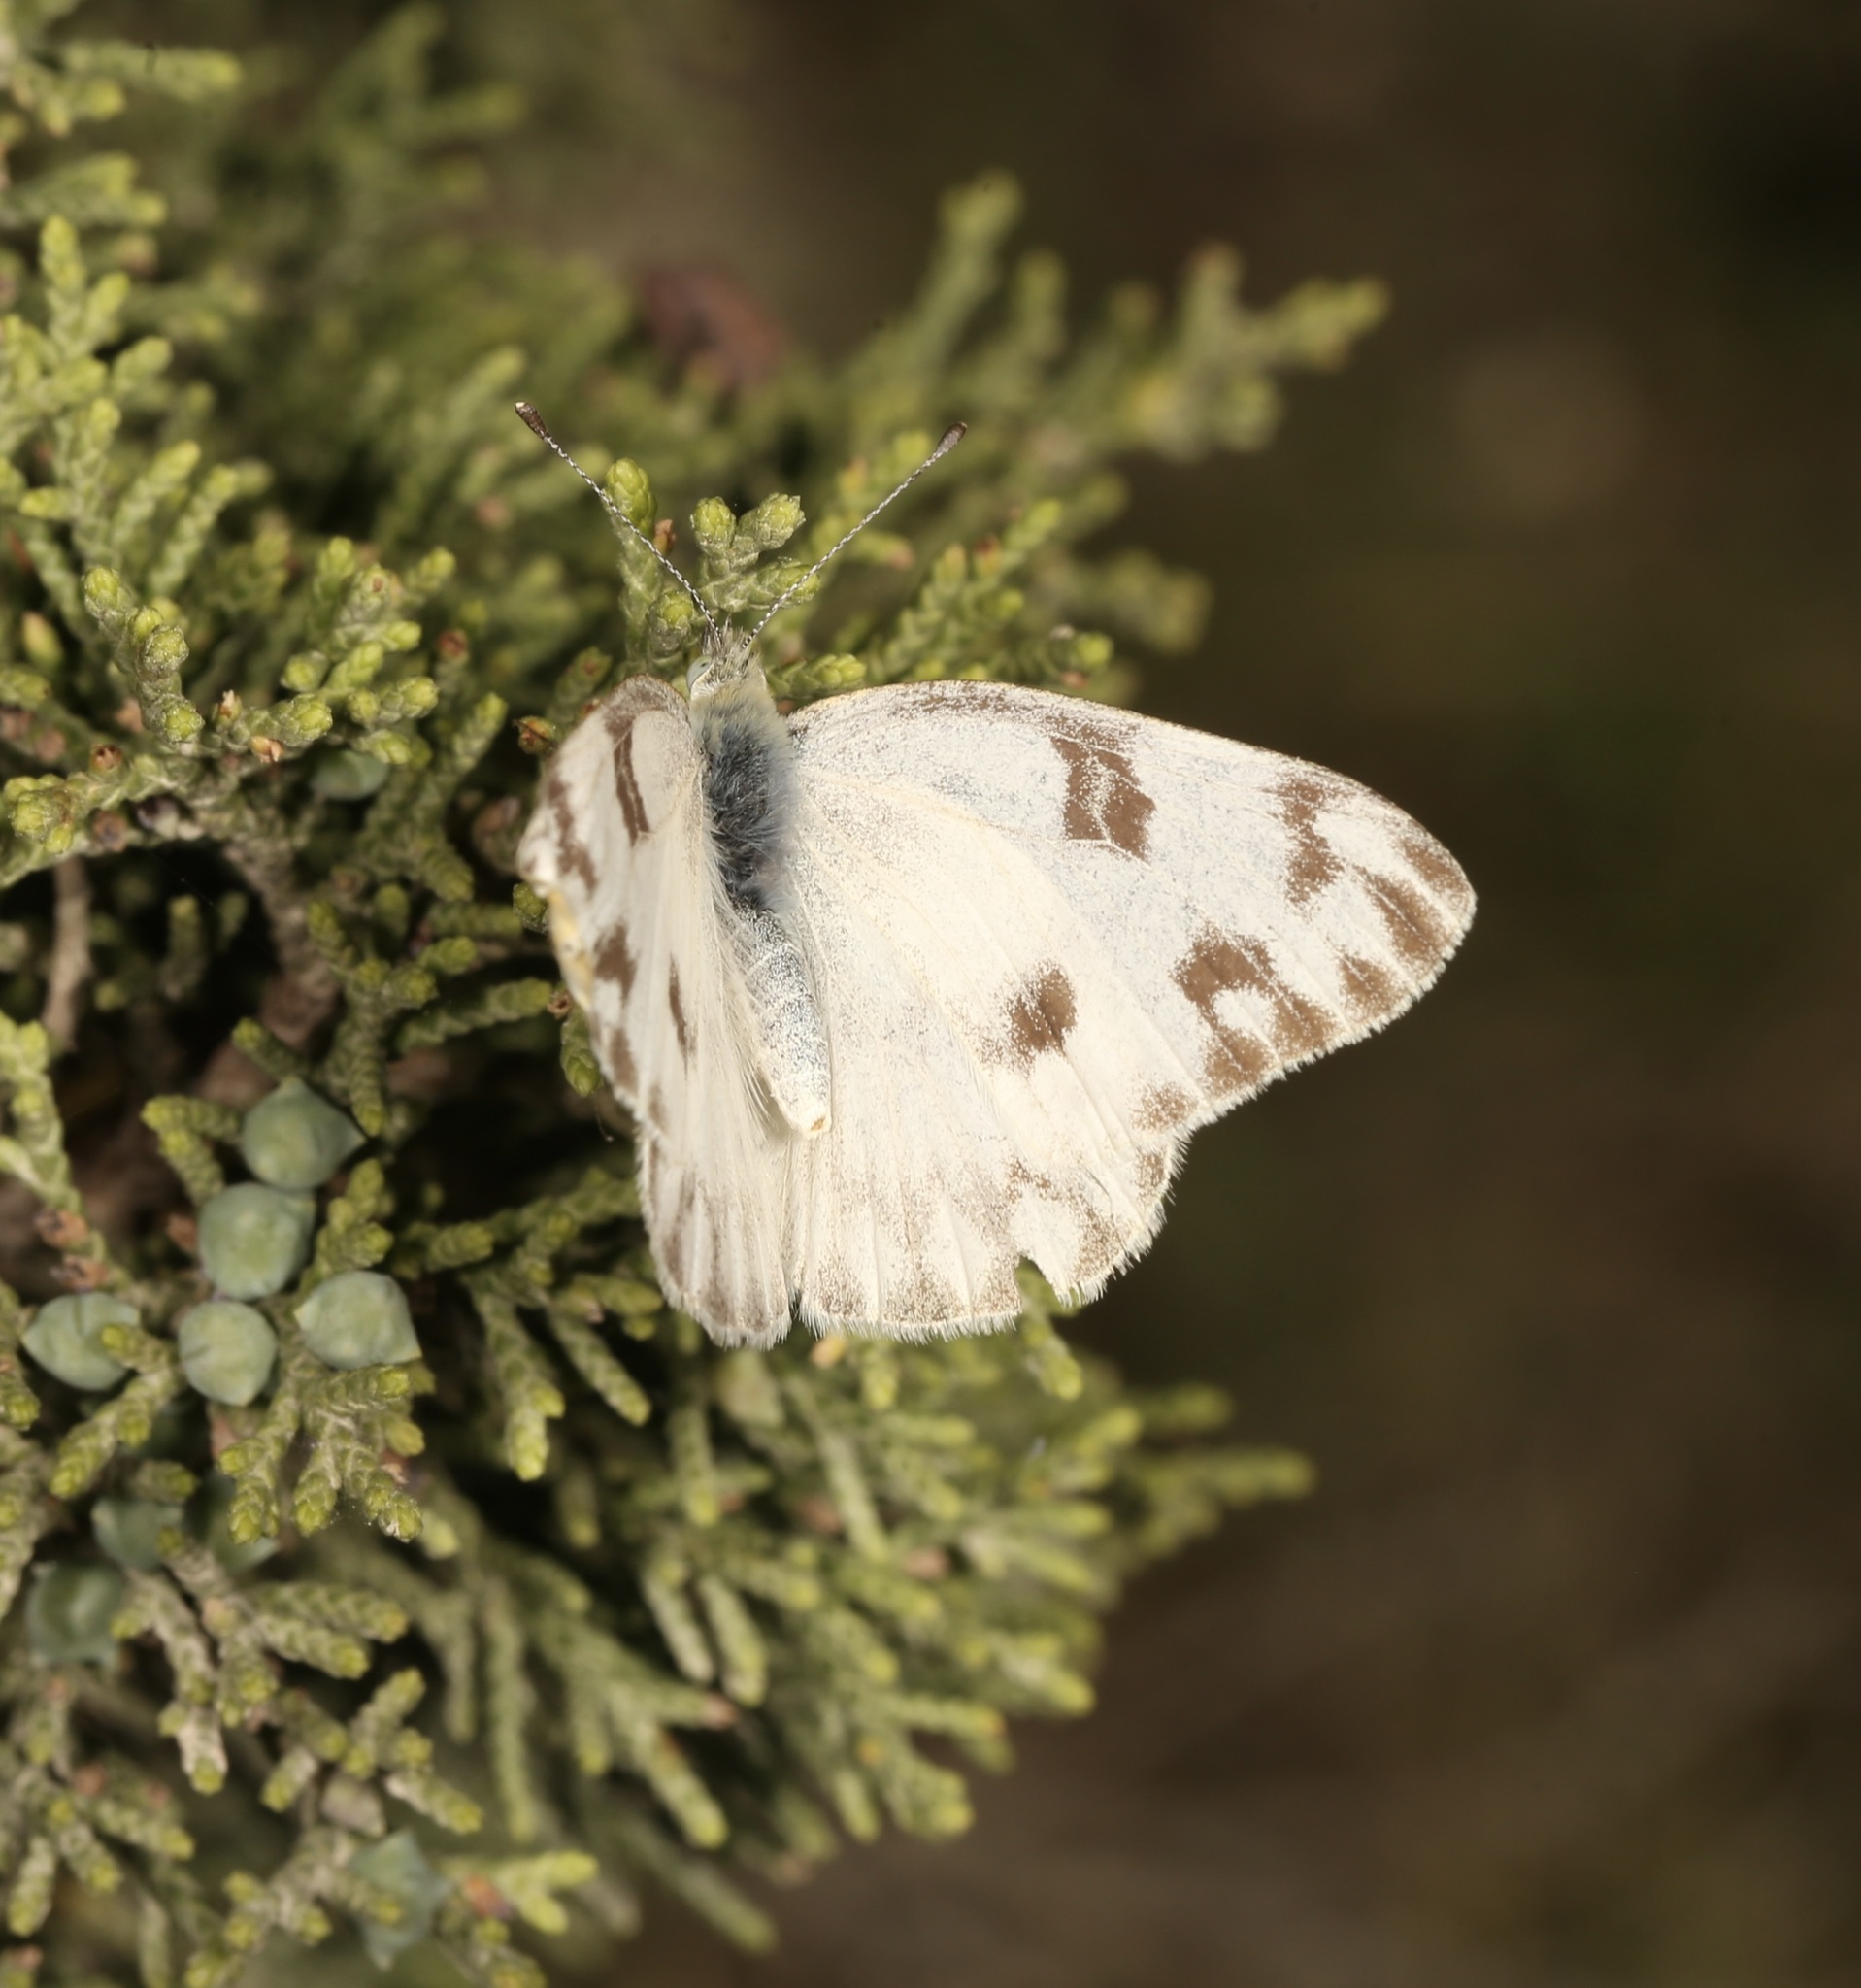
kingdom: Animalia
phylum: Arthropoda
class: Insecta
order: Lepidoptera
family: Pieridae
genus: Pontia
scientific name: Pontia protodice
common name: Checkered white
